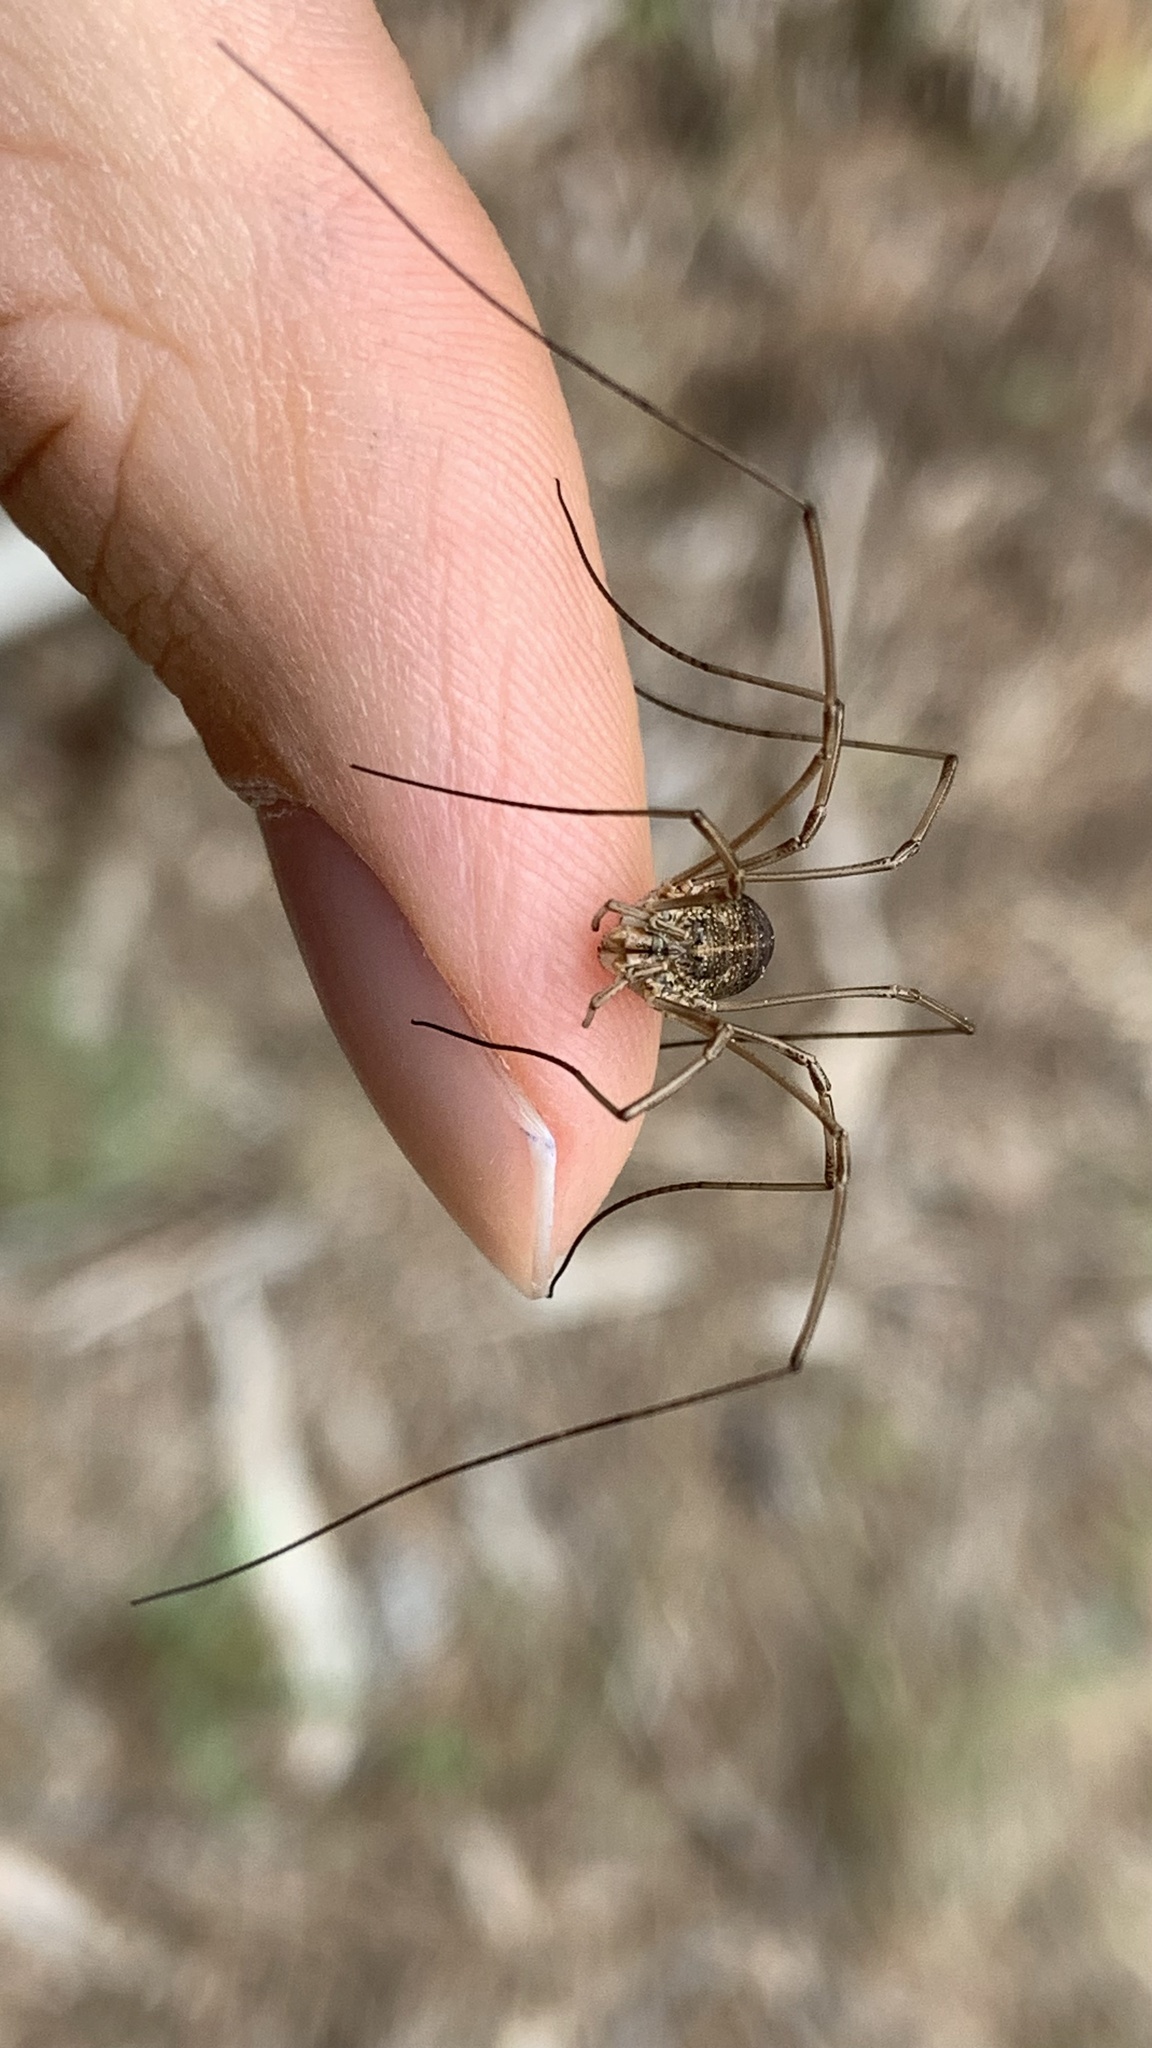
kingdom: Animalia
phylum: Arthropoda
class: Arachnida
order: Opiliones
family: Phalangiidae
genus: Phalangium
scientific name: Phalangium opilio
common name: Daddy longleg
